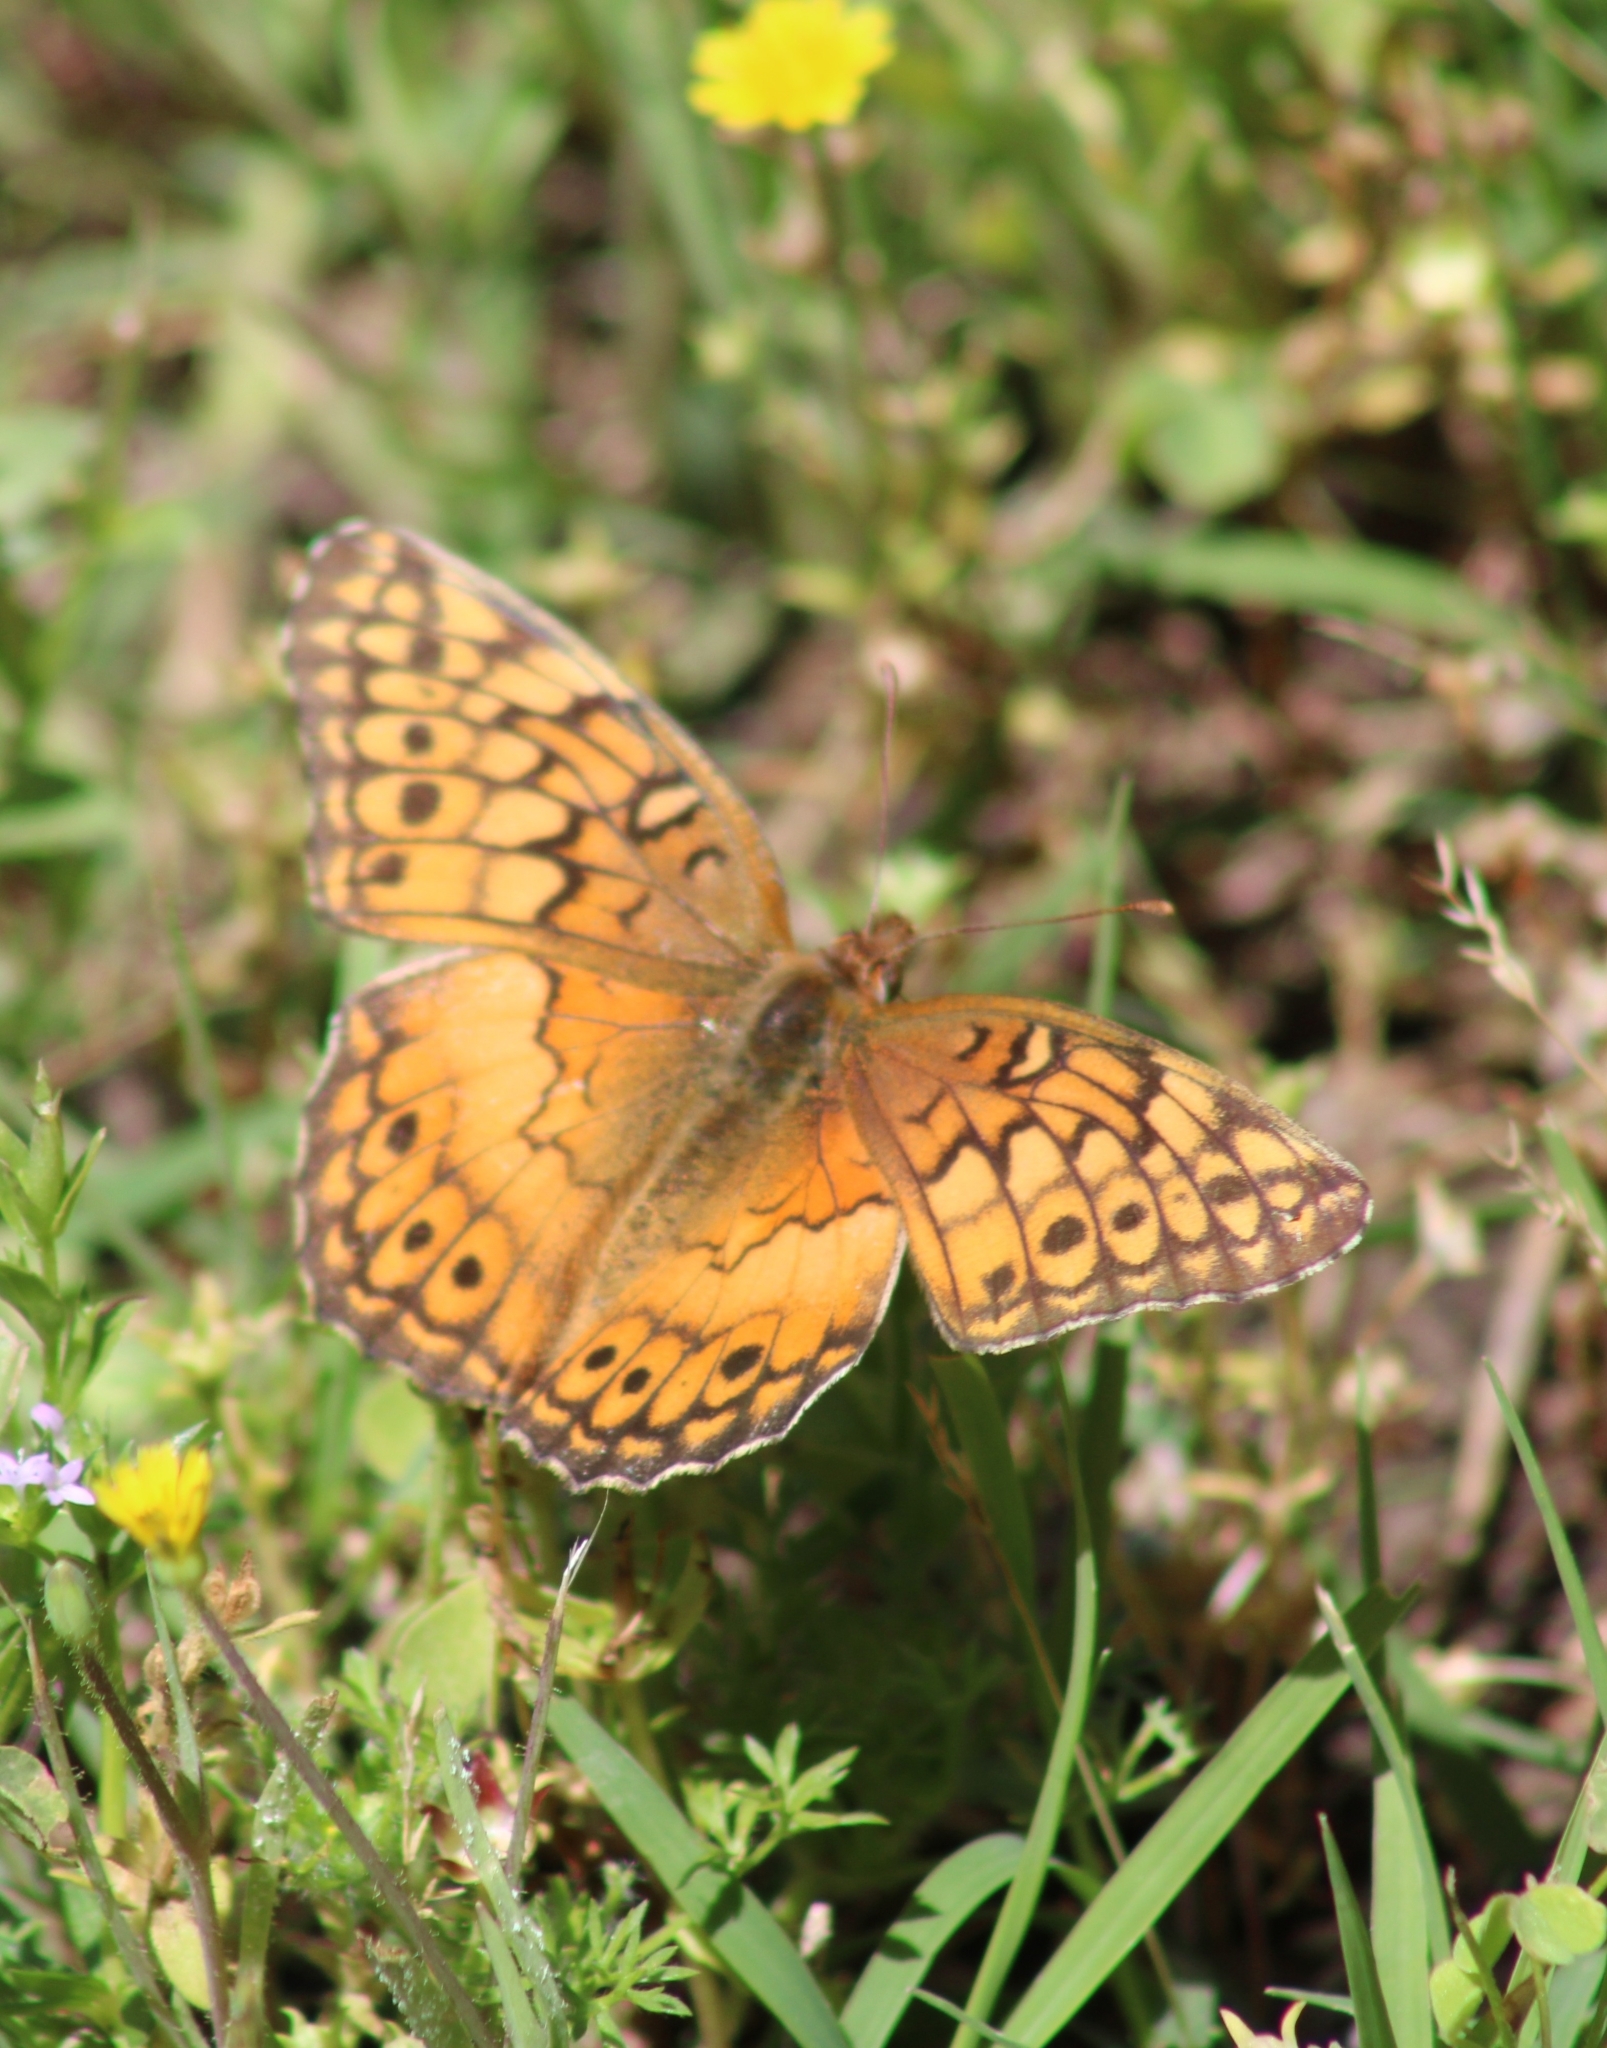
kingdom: Animalia
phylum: Arthropoda
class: Insecta
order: Lepidoptera
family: Nymphalidae
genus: Euptoieta
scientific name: Euptoieta claudia
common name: Variegated fritillary
